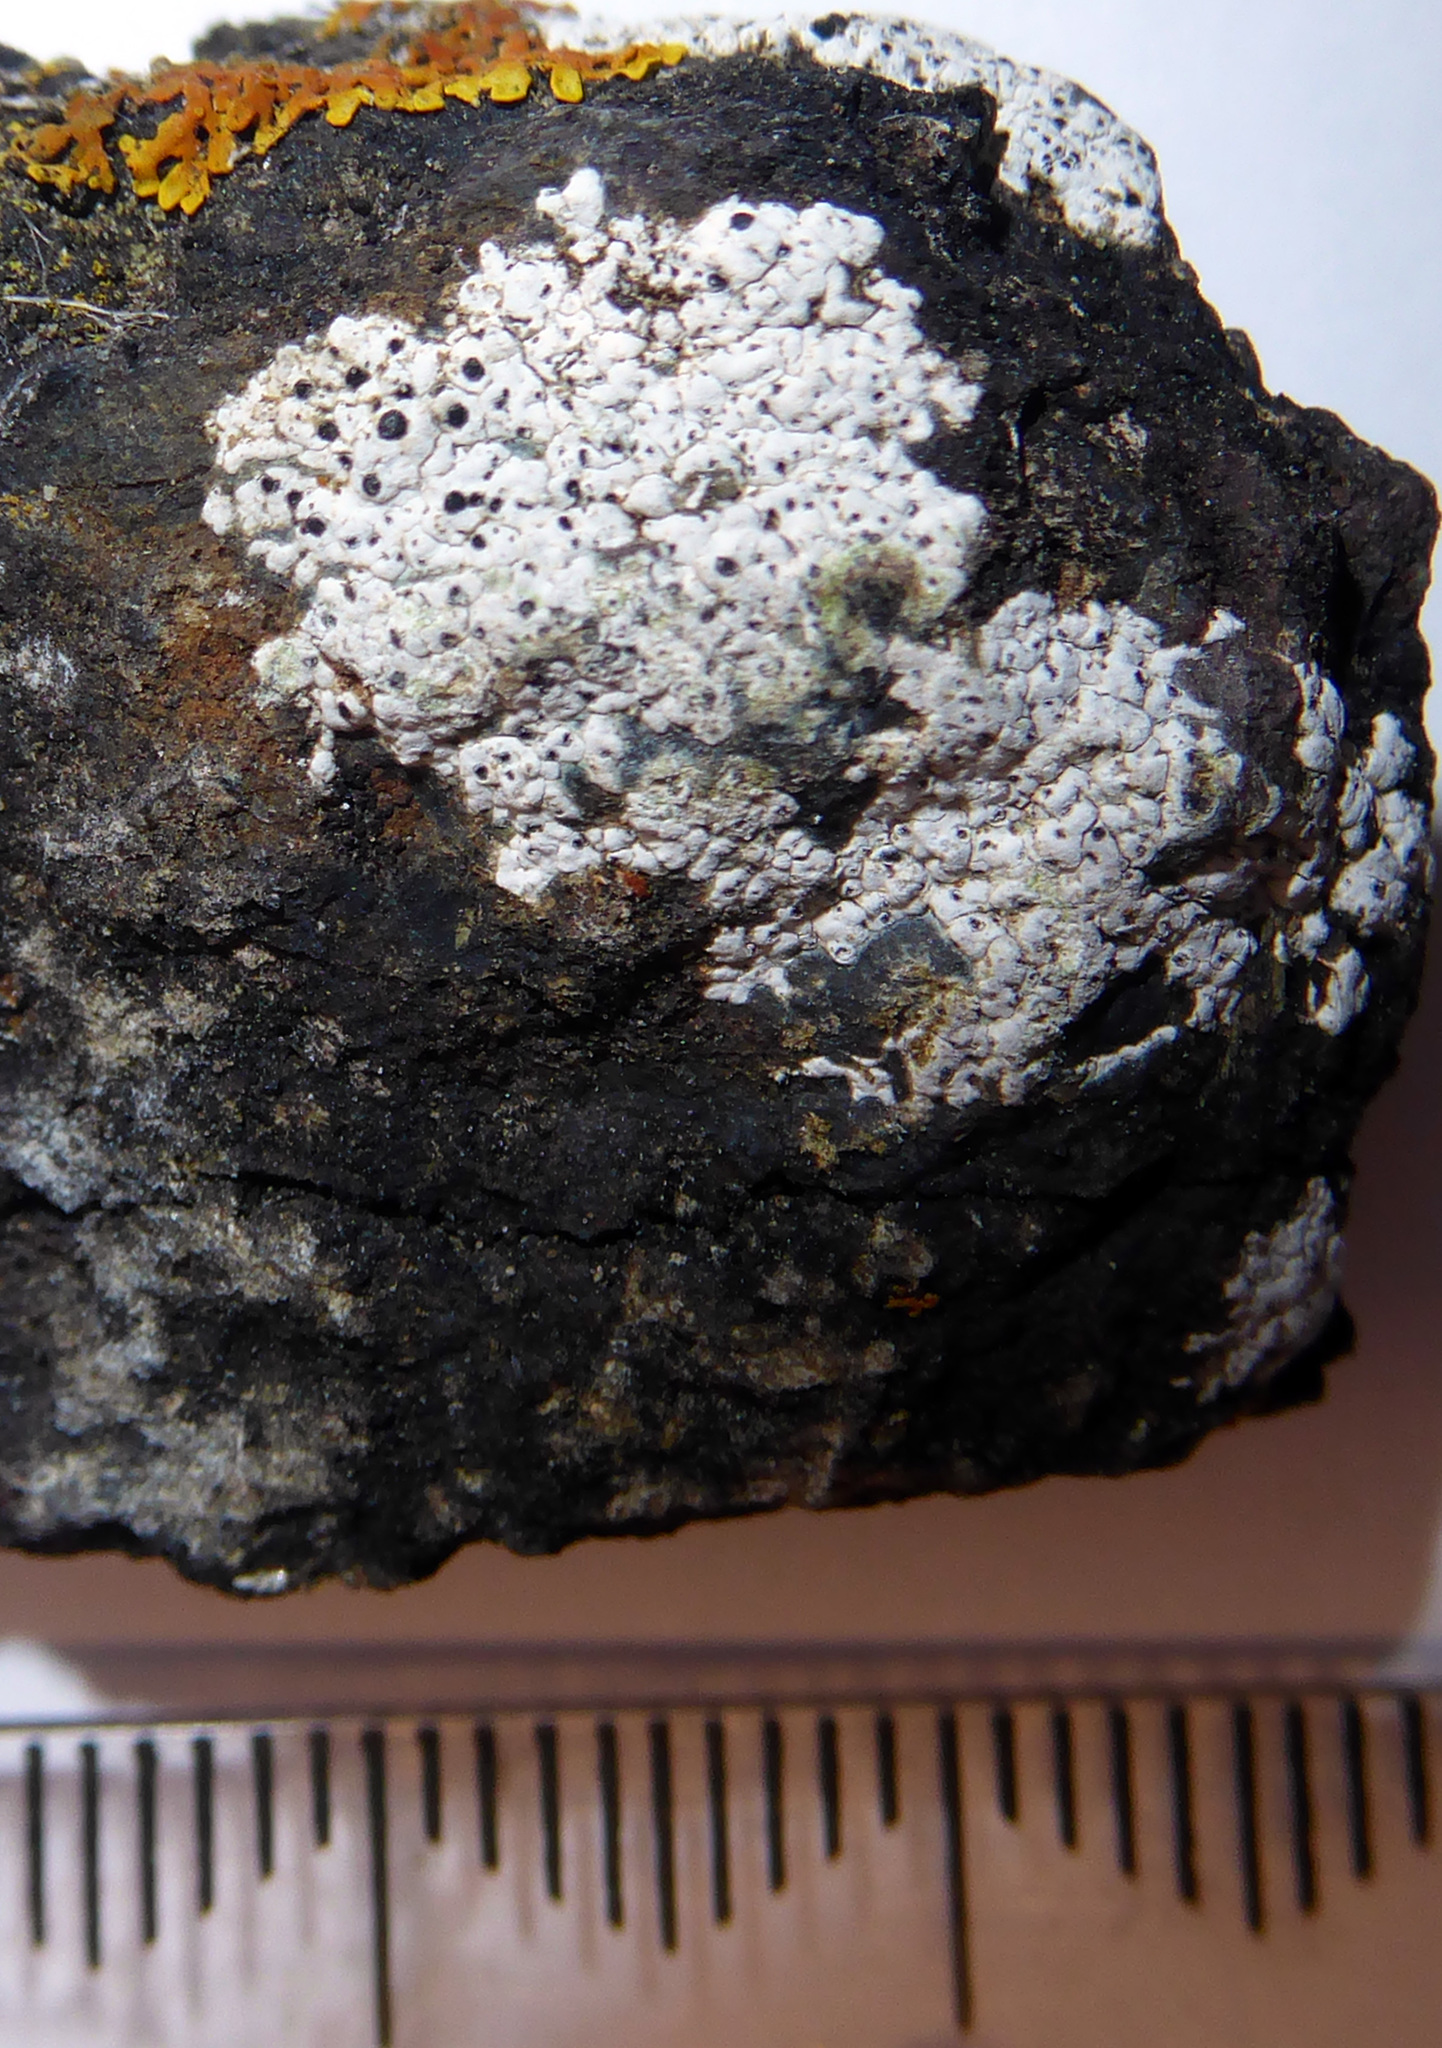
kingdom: Fungi
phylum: Ascomycota
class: Lecanoromycetes
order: Caliciales
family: Caliciaceae
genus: Buellia
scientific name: Buellia
